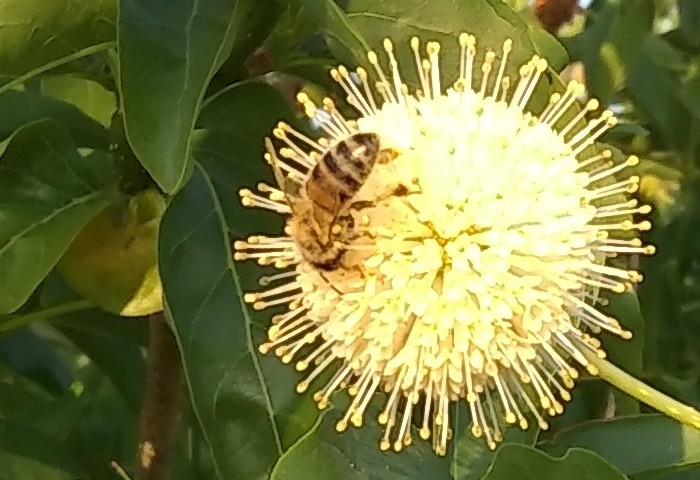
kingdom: Animalia
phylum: Arthropoda
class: Insecta
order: Hymenoptera
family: Apidae
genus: Apis
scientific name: Apis mellifera
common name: Honey bee
